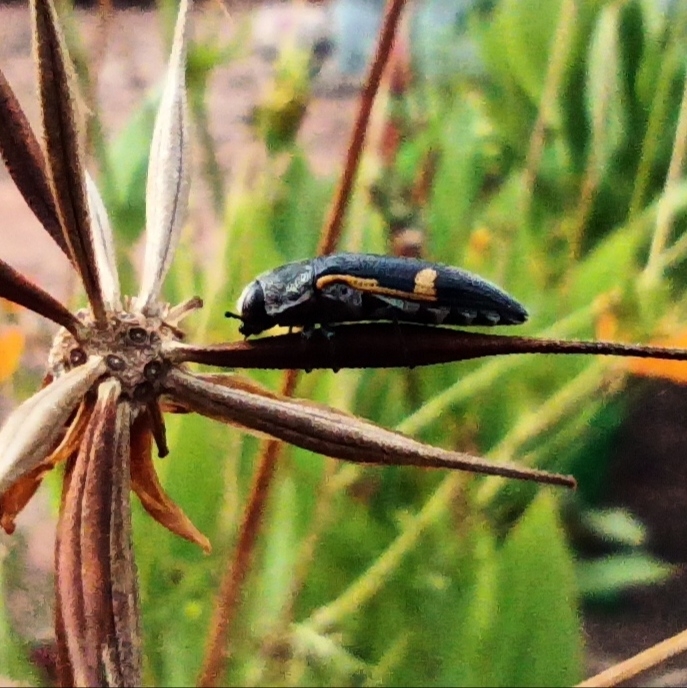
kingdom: Animalia
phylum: Arthropoda
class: Insecta
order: Coleoptera
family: Buprestidae
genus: Acmaeodera
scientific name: Acmaeodera stictipennis
